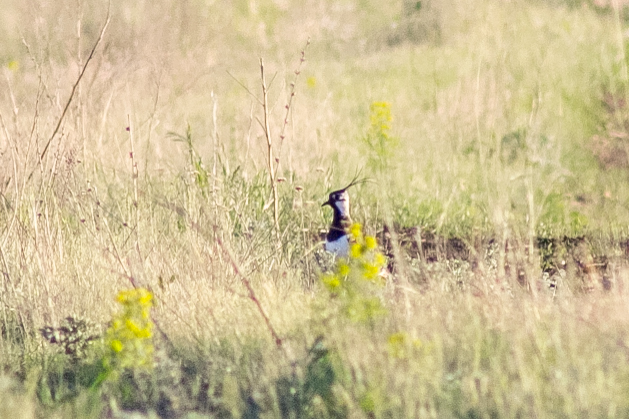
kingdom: Animalia
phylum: Chordata
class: Aves
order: Charadriiformes
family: Charadriidae
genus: Vanellus
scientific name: Vanellus vanellus
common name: Northern lapwing
